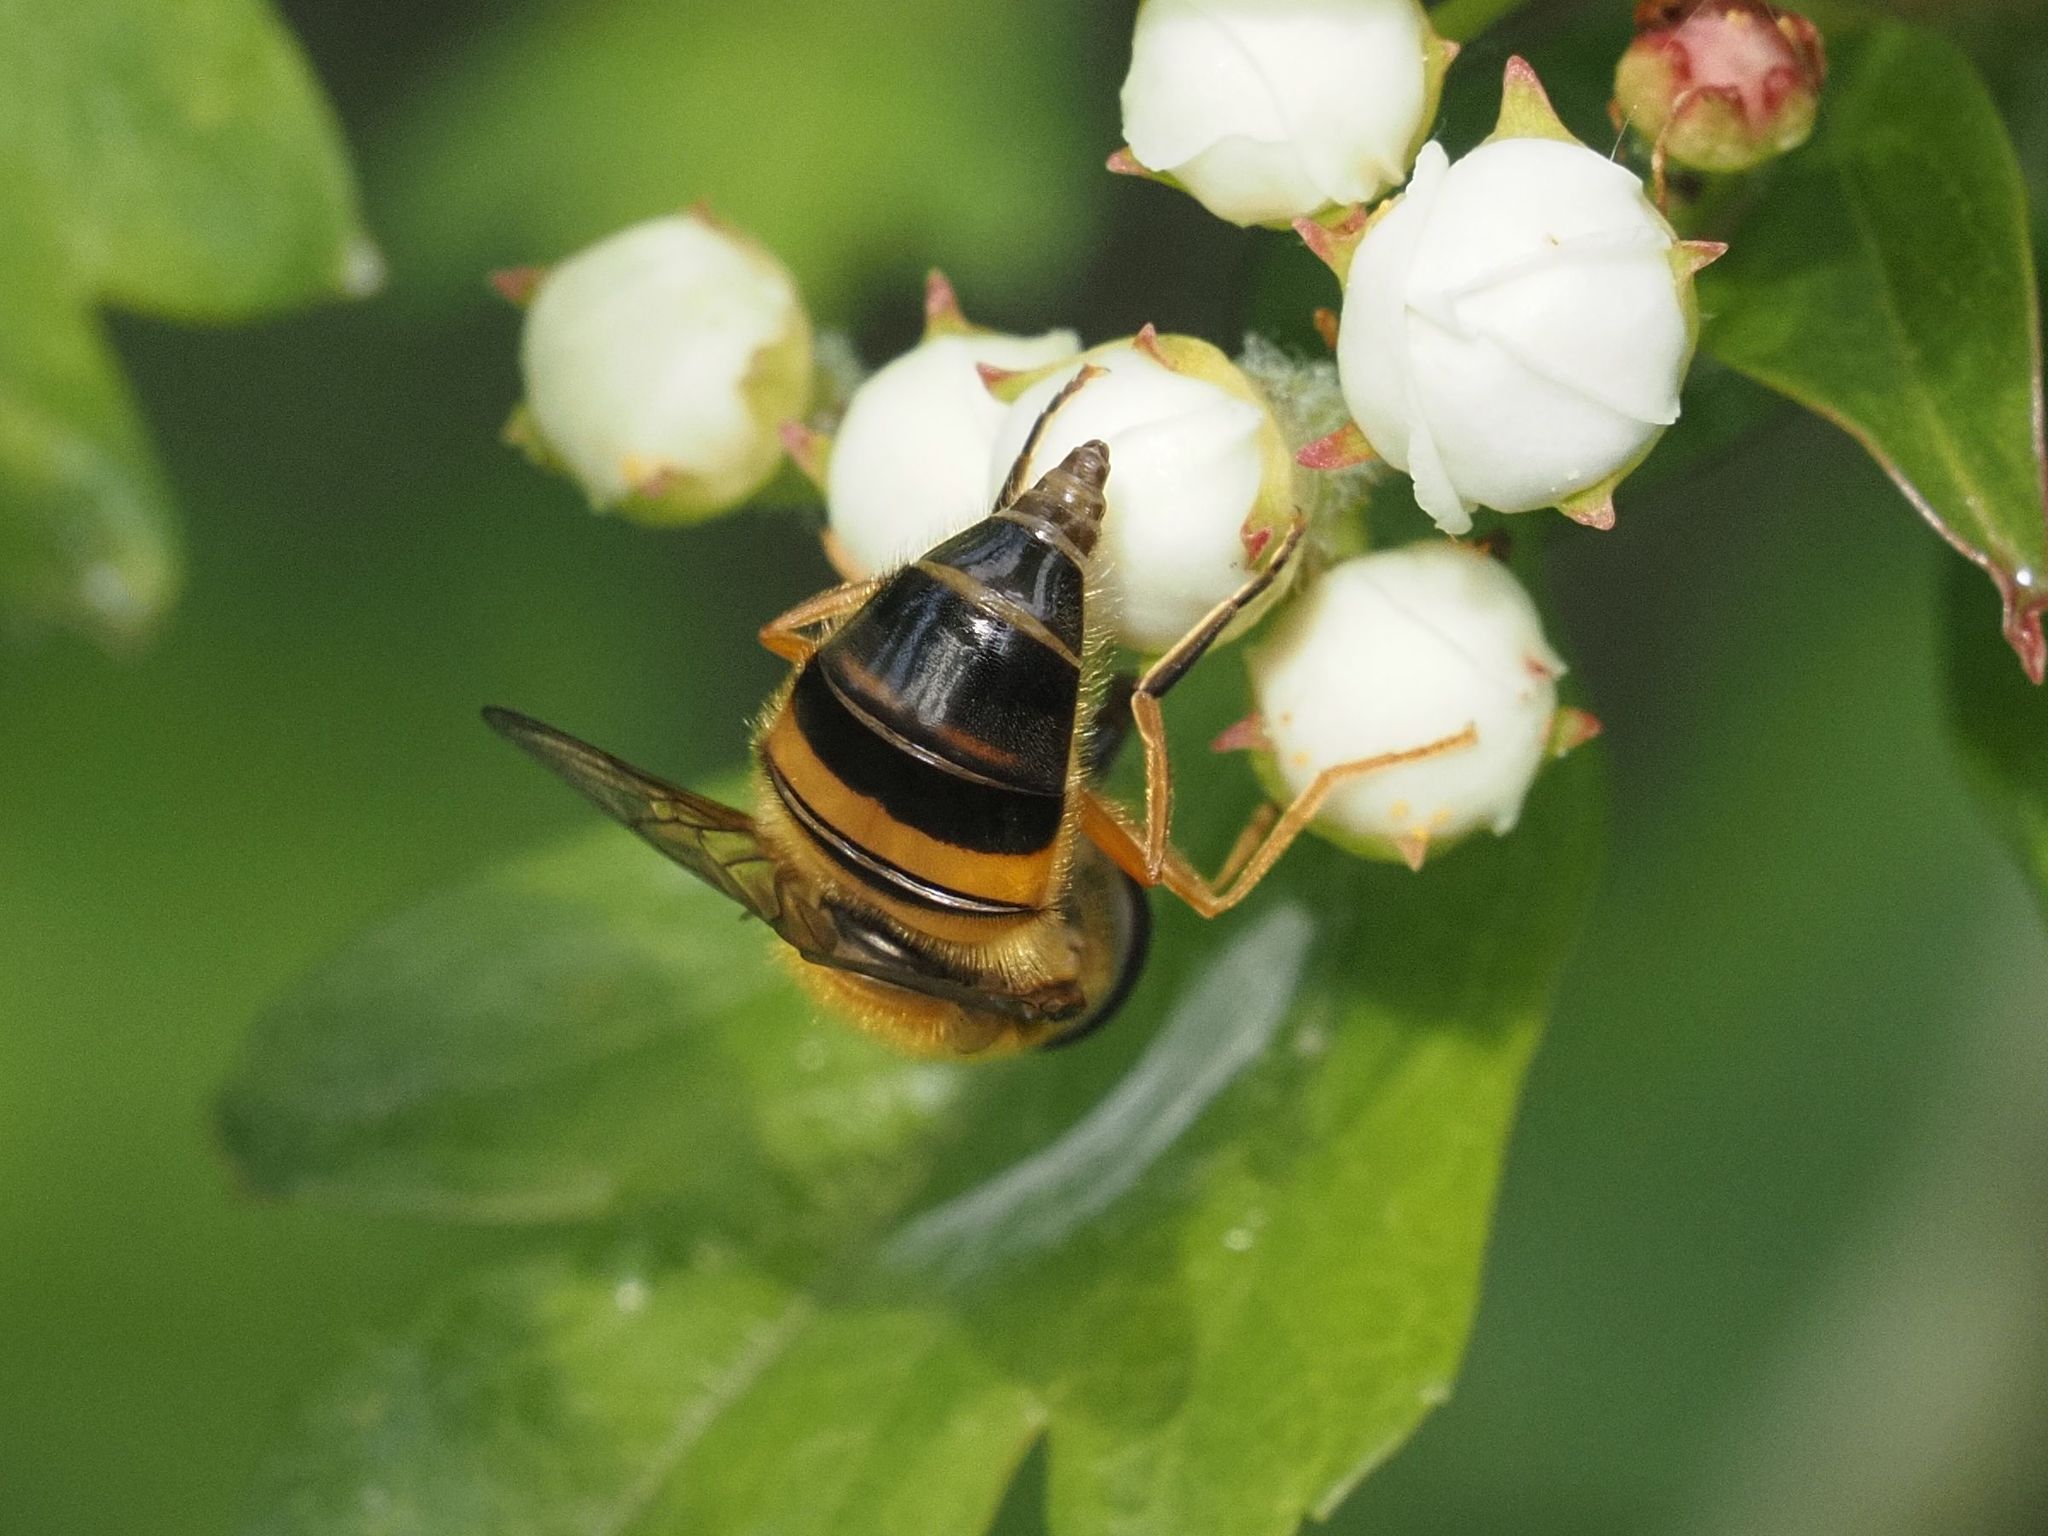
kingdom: Animalia
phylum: Arthropoda
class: Insecta
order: Diptera
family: Syrphidae
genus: Epistrophe
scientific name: Epistrophe eligans
